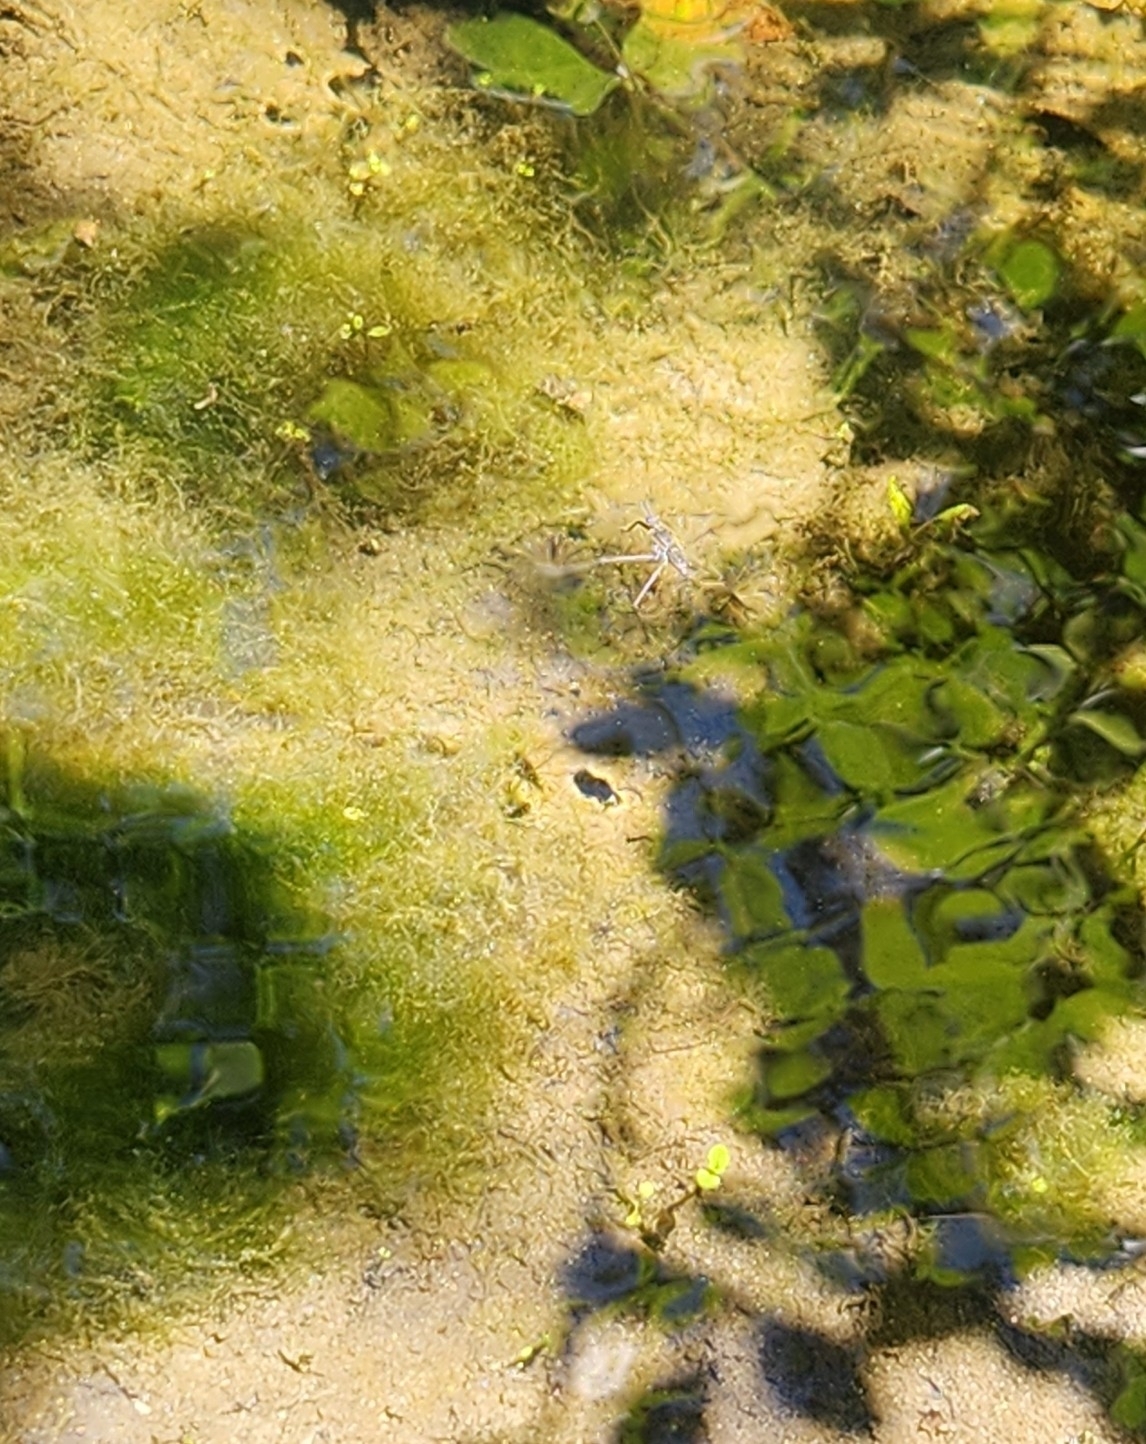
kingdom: Animalia
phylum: Arthropoda
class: Insecta
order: Hemiptera
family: Gerridae
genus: Aquarius
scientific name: Aquarius remigis
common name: Common water strider
